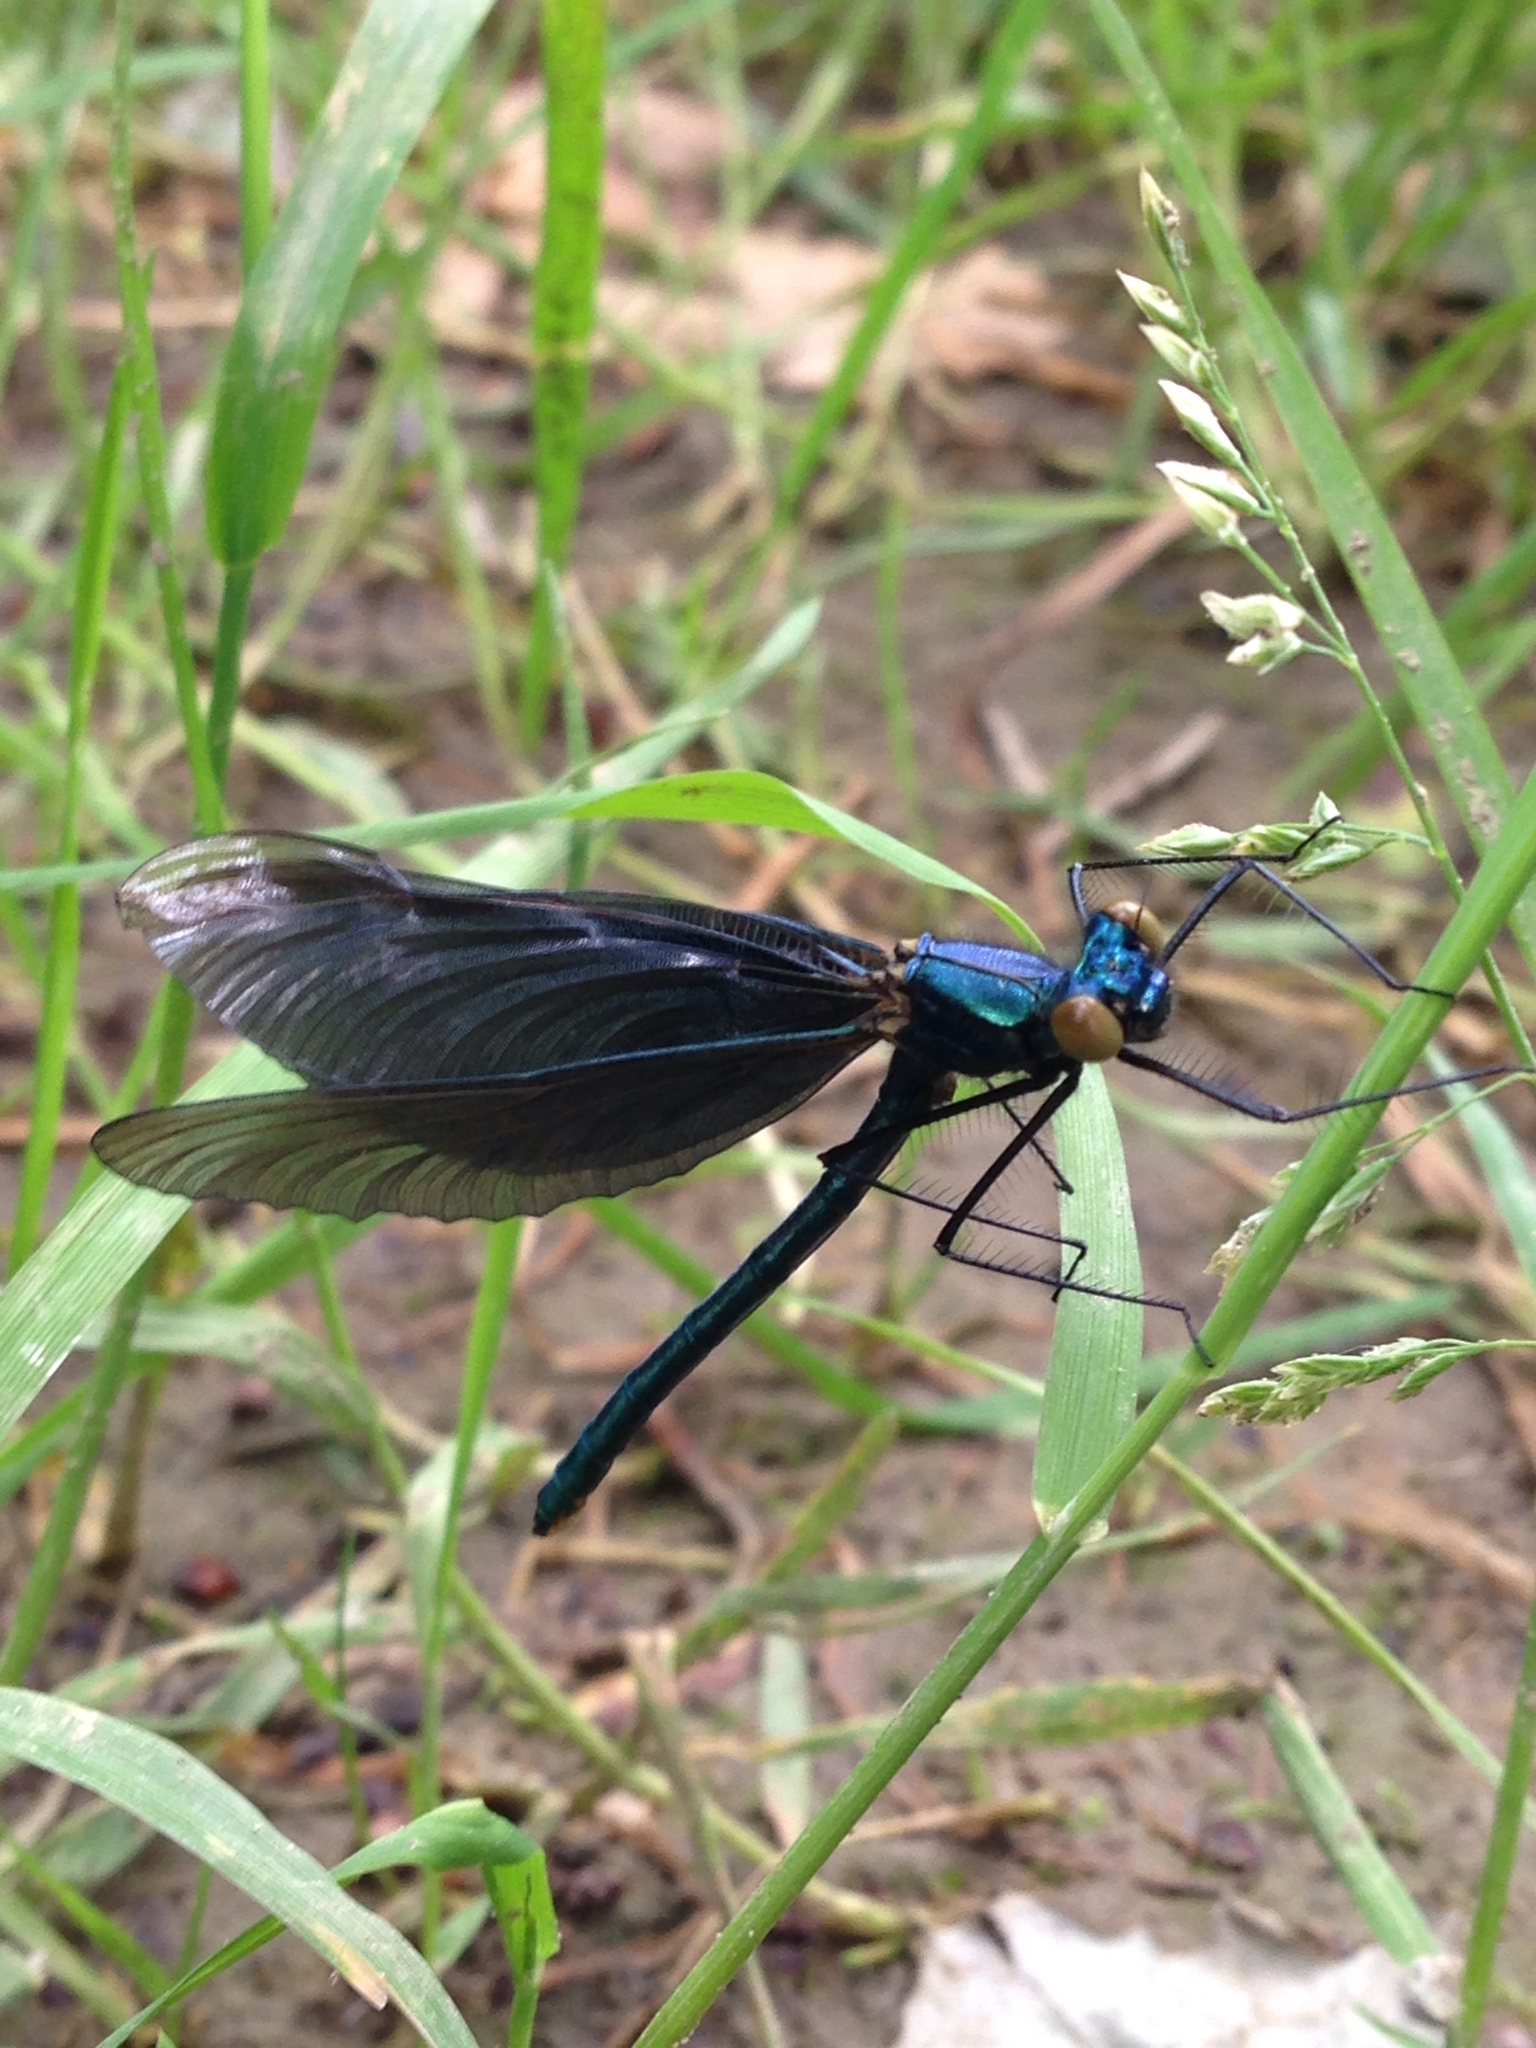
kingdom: Animalia
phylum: Arthropoda
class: Insecta
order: Odonata
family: Calopterygidae
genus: Calopteryx
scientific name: Calopteryx virgo
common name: Beautiful demoiselle
